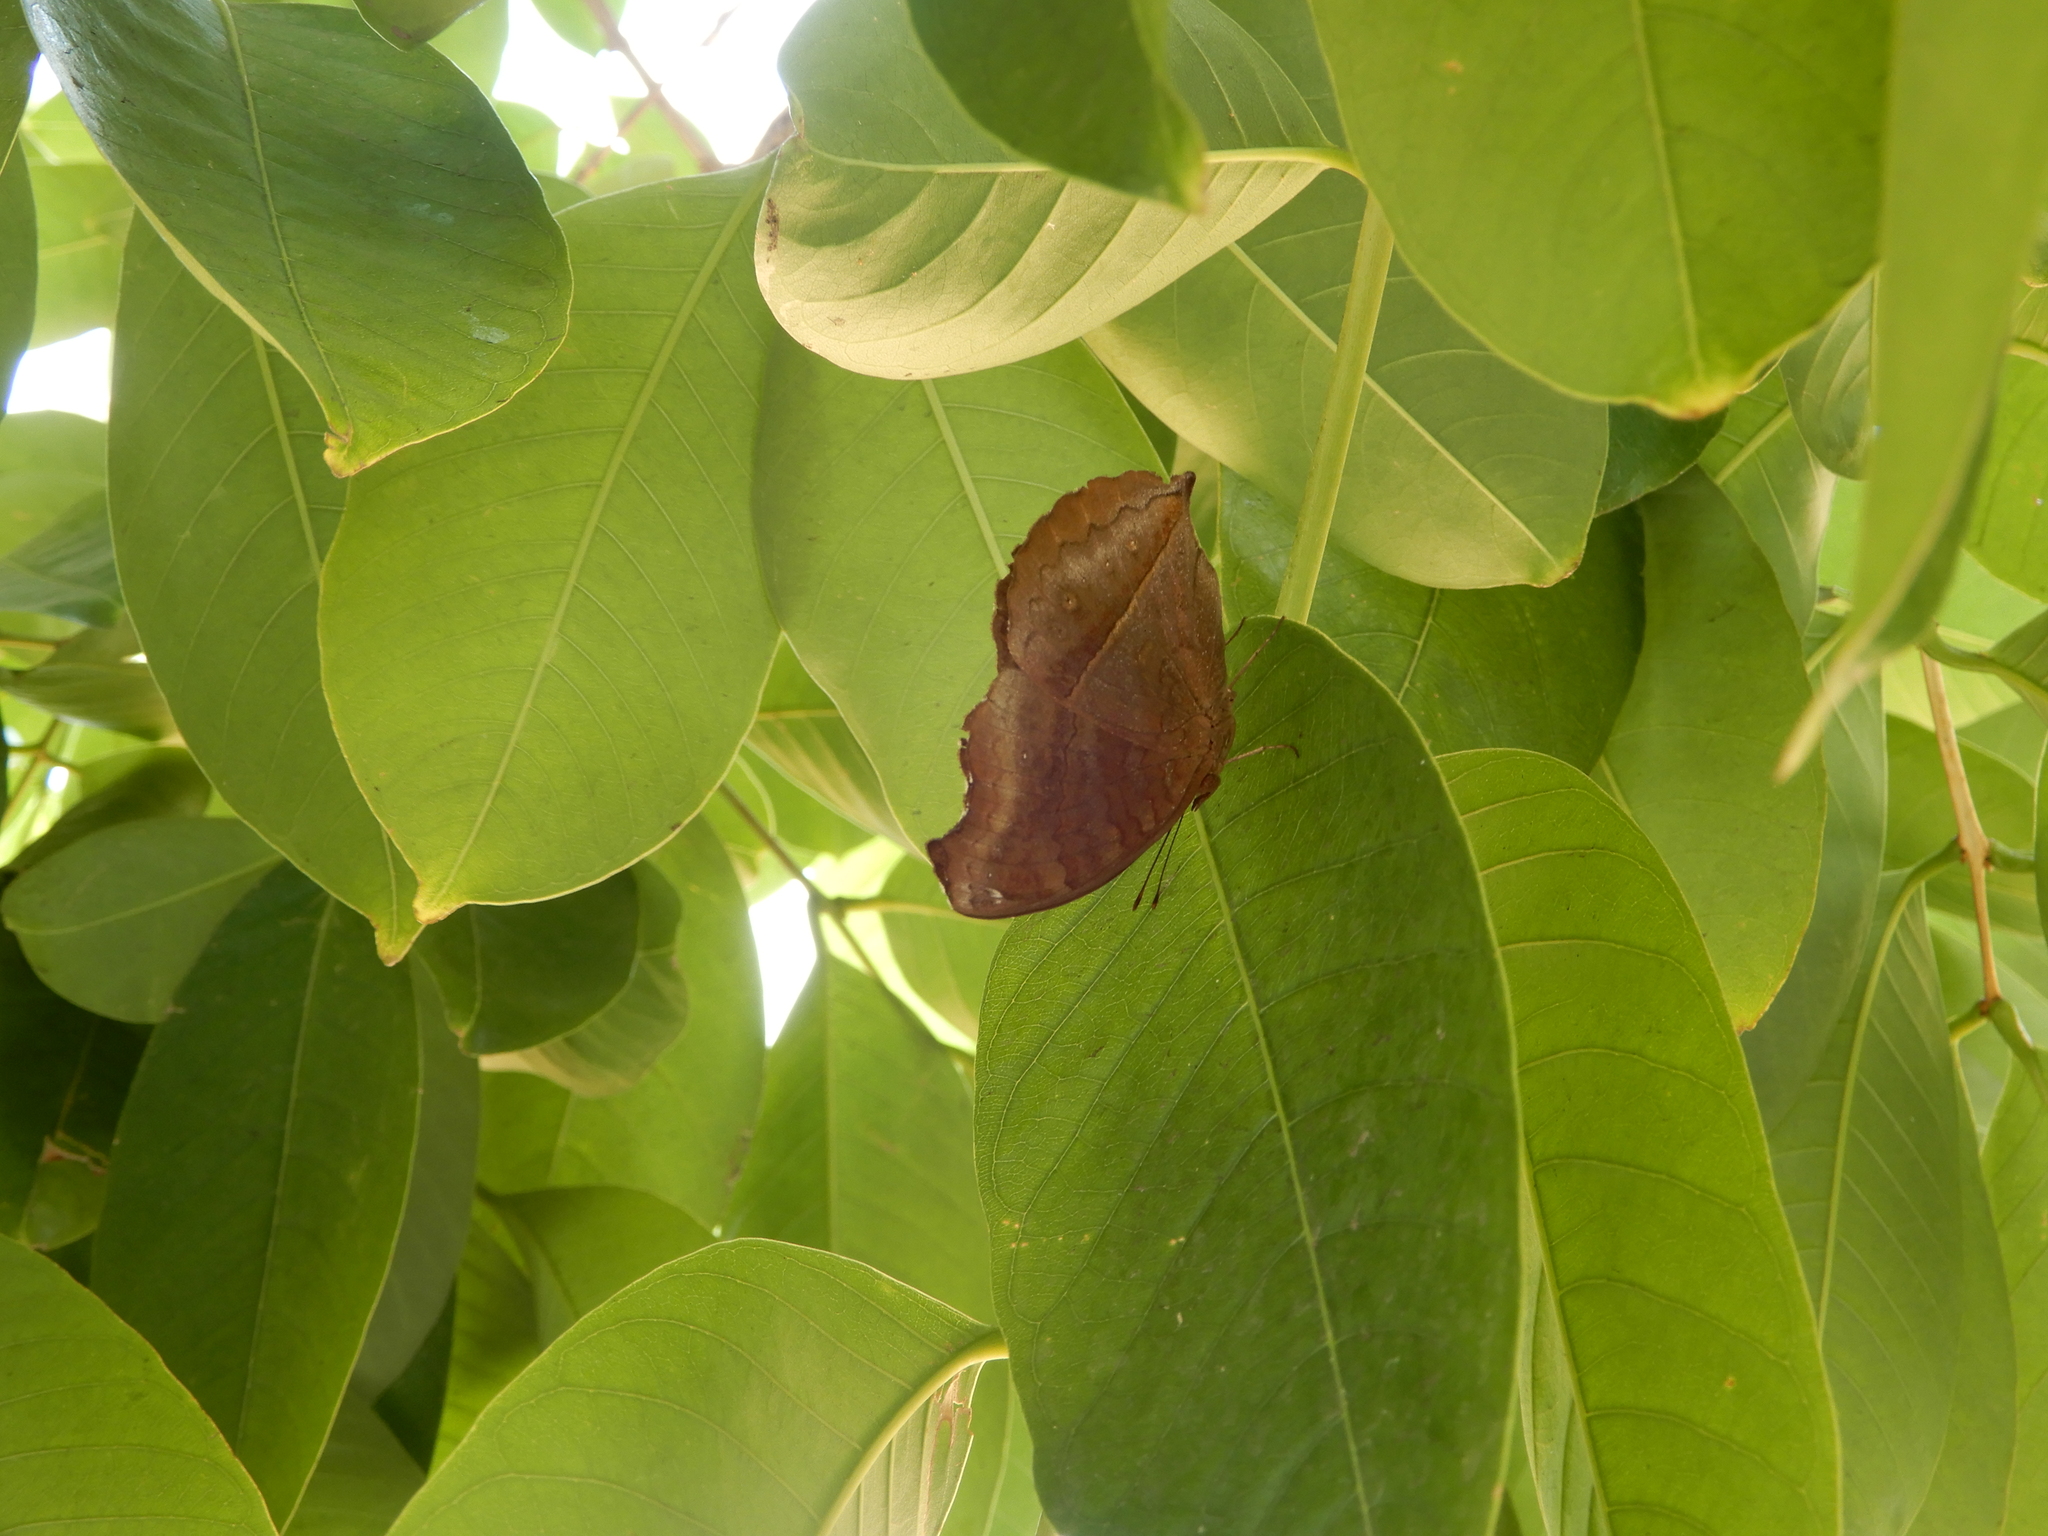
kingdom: Animalia
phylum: Arthropoda
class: Insecta
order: Lepidoptera
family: Nymphalidae
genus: Junonia
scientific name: Junonia iphita
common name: Chocolate pansy
